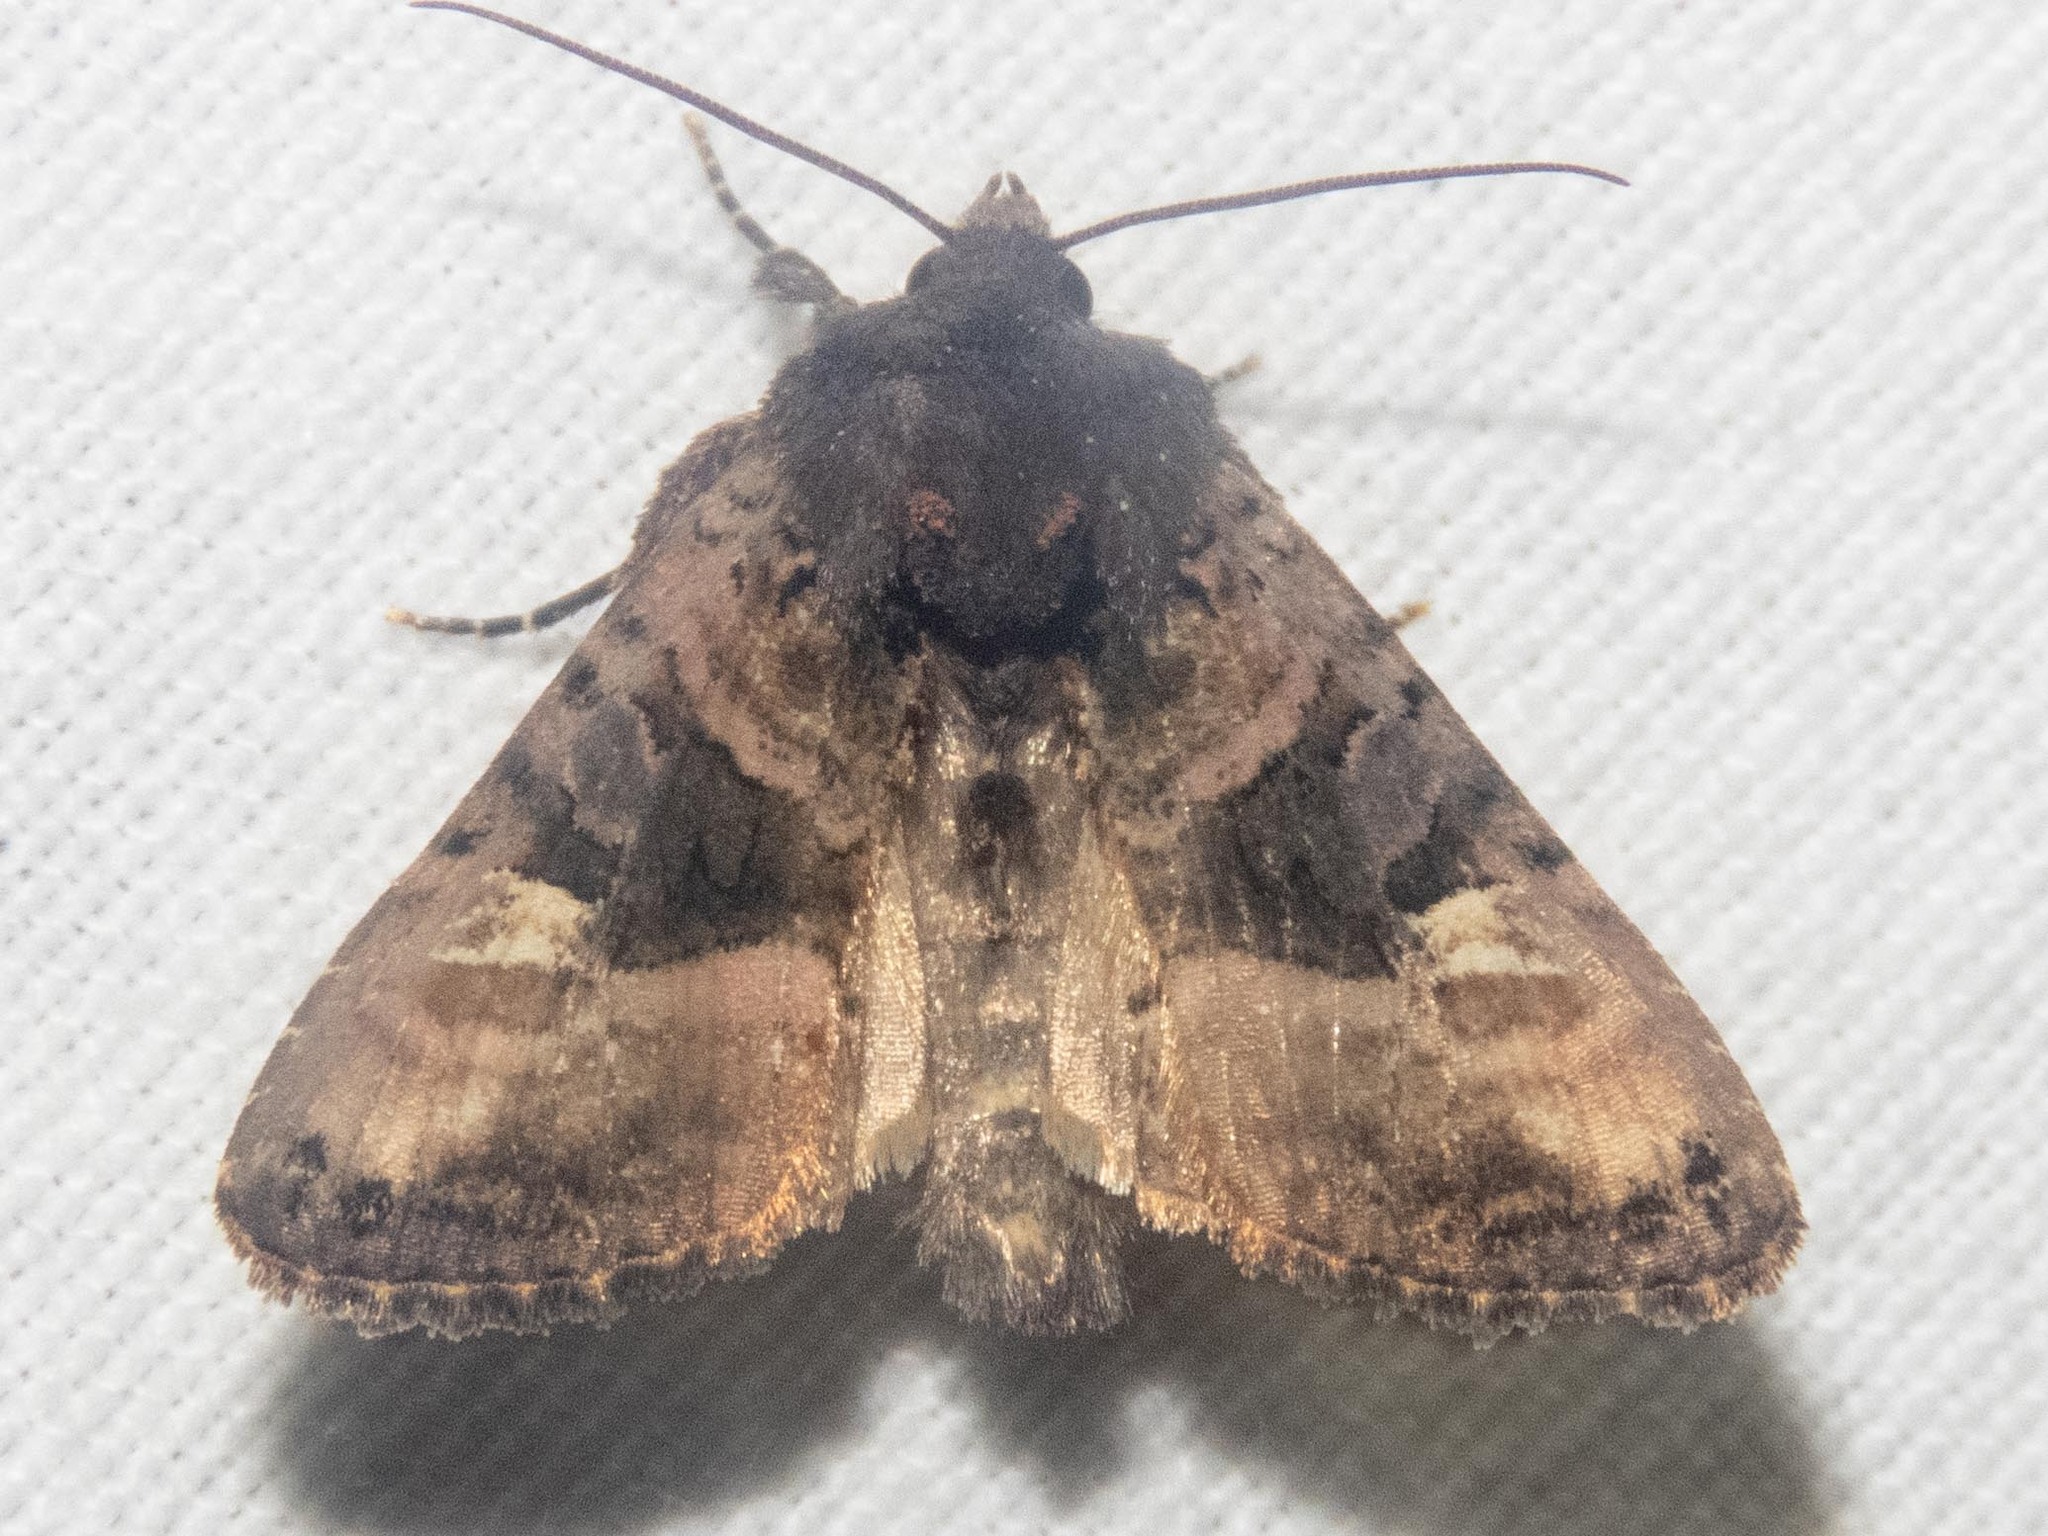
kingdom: Animalia
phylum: Arthropoda
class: Insecta
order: Lepidoptera
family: Noctuidae
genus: Euplexia
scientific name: Euplexia lucipara
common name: Small angle shades
